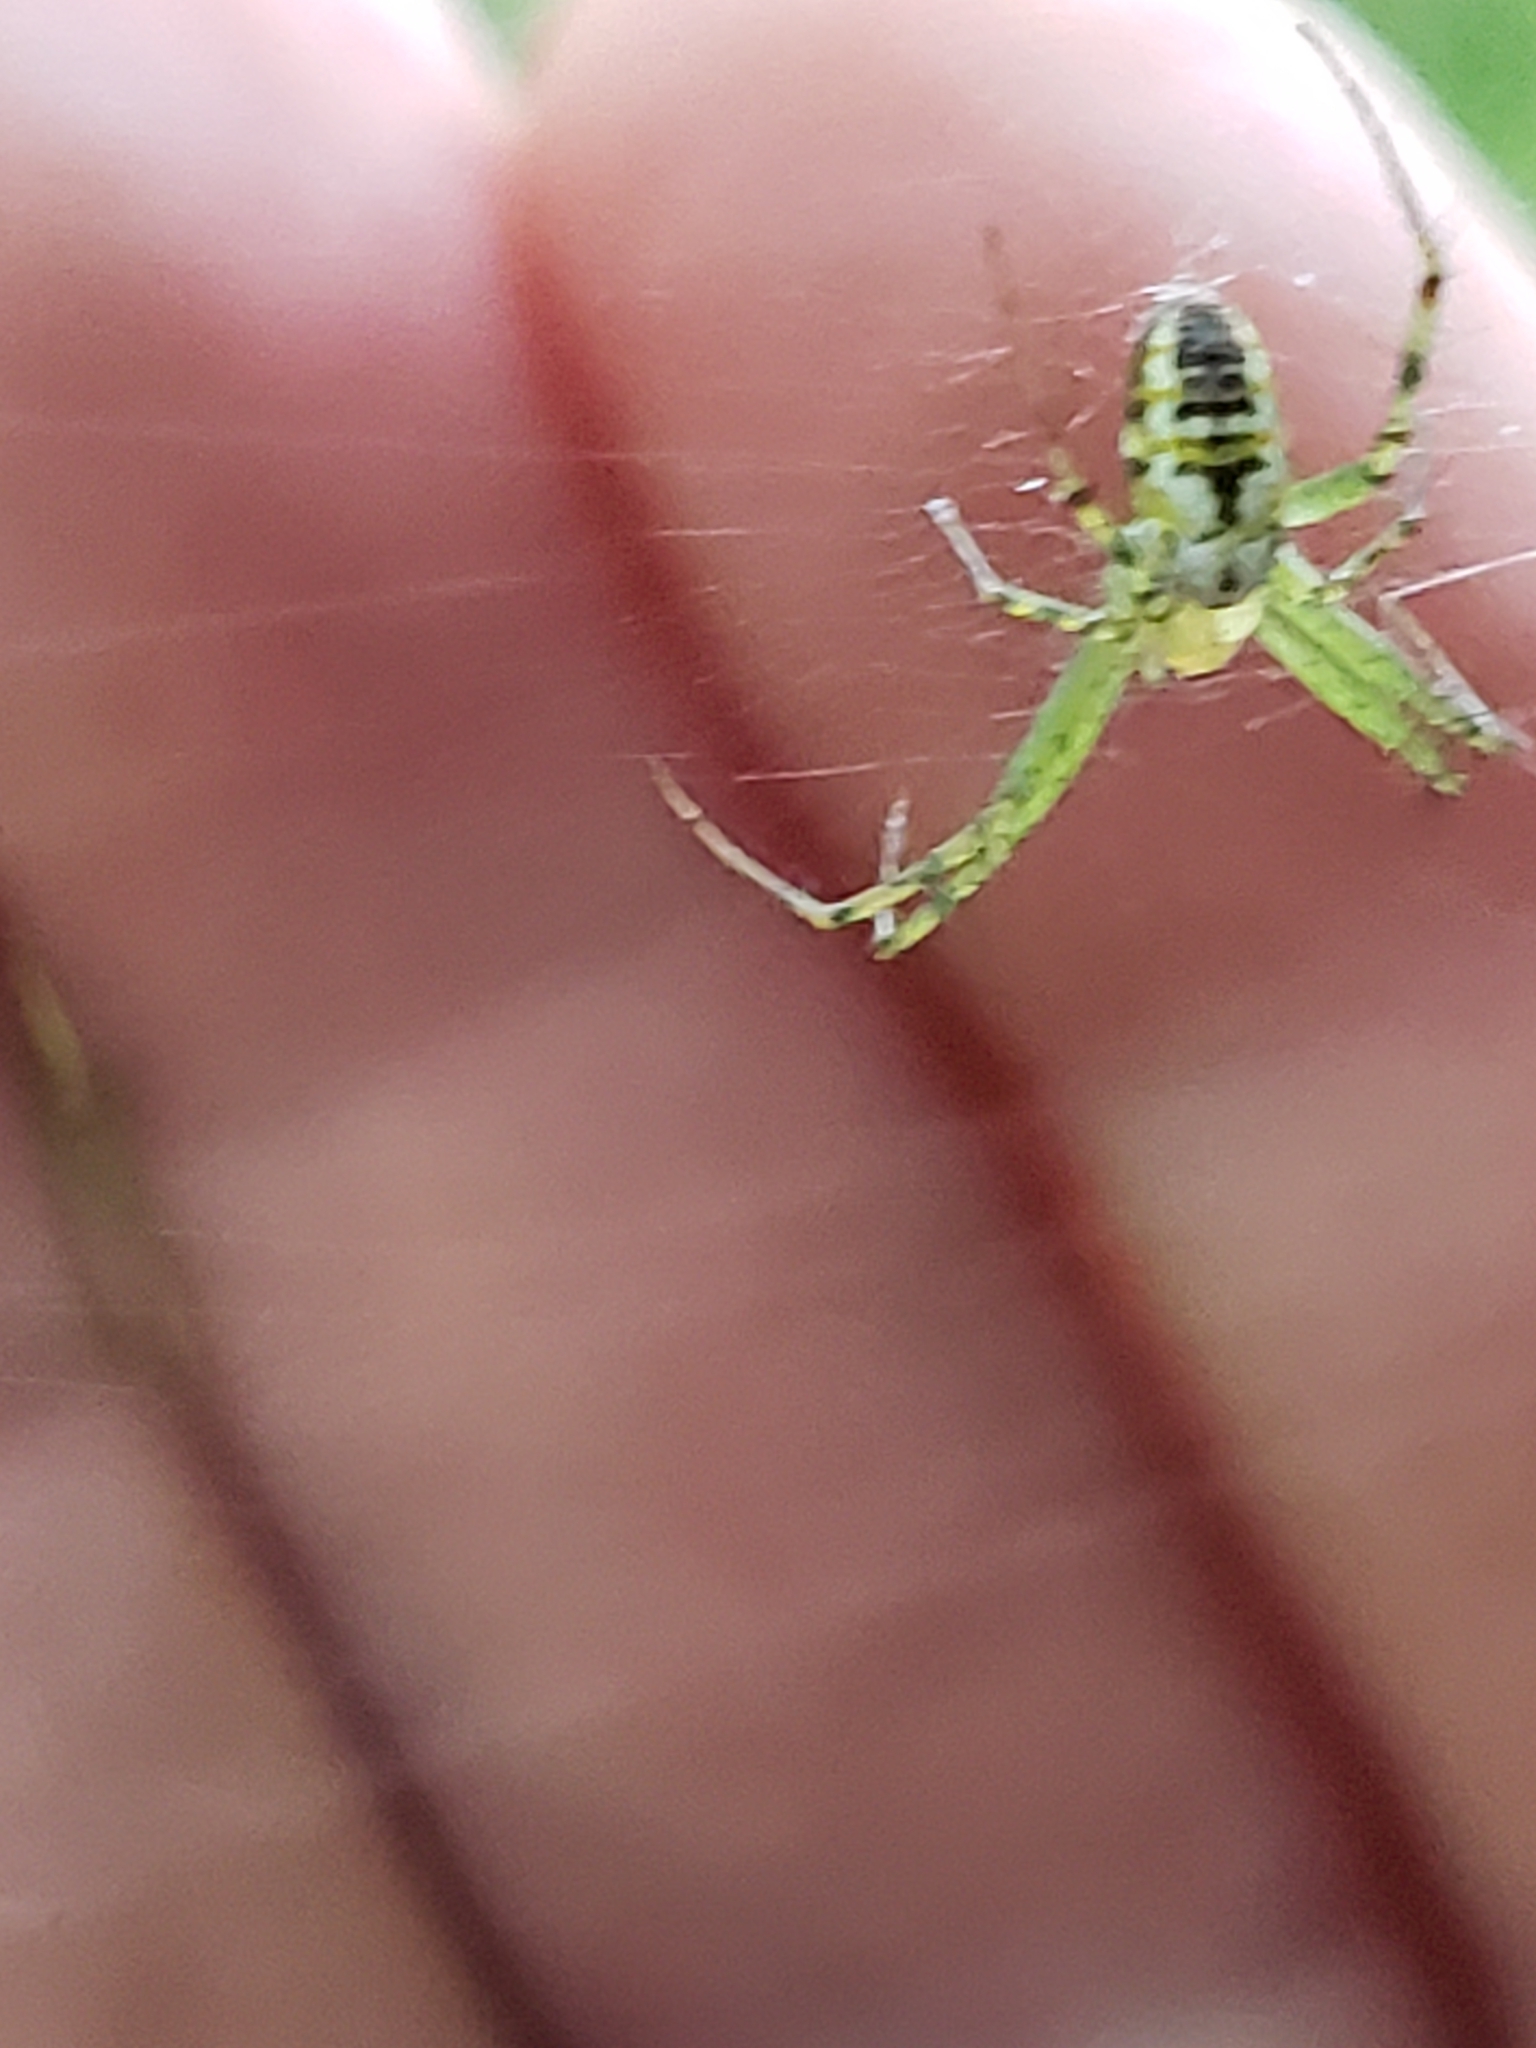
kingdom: Animalia
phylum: Arthropoda
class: Arachnida
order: Araneae
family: Araneidae
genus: Mangora
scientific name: Mangora spiculata
